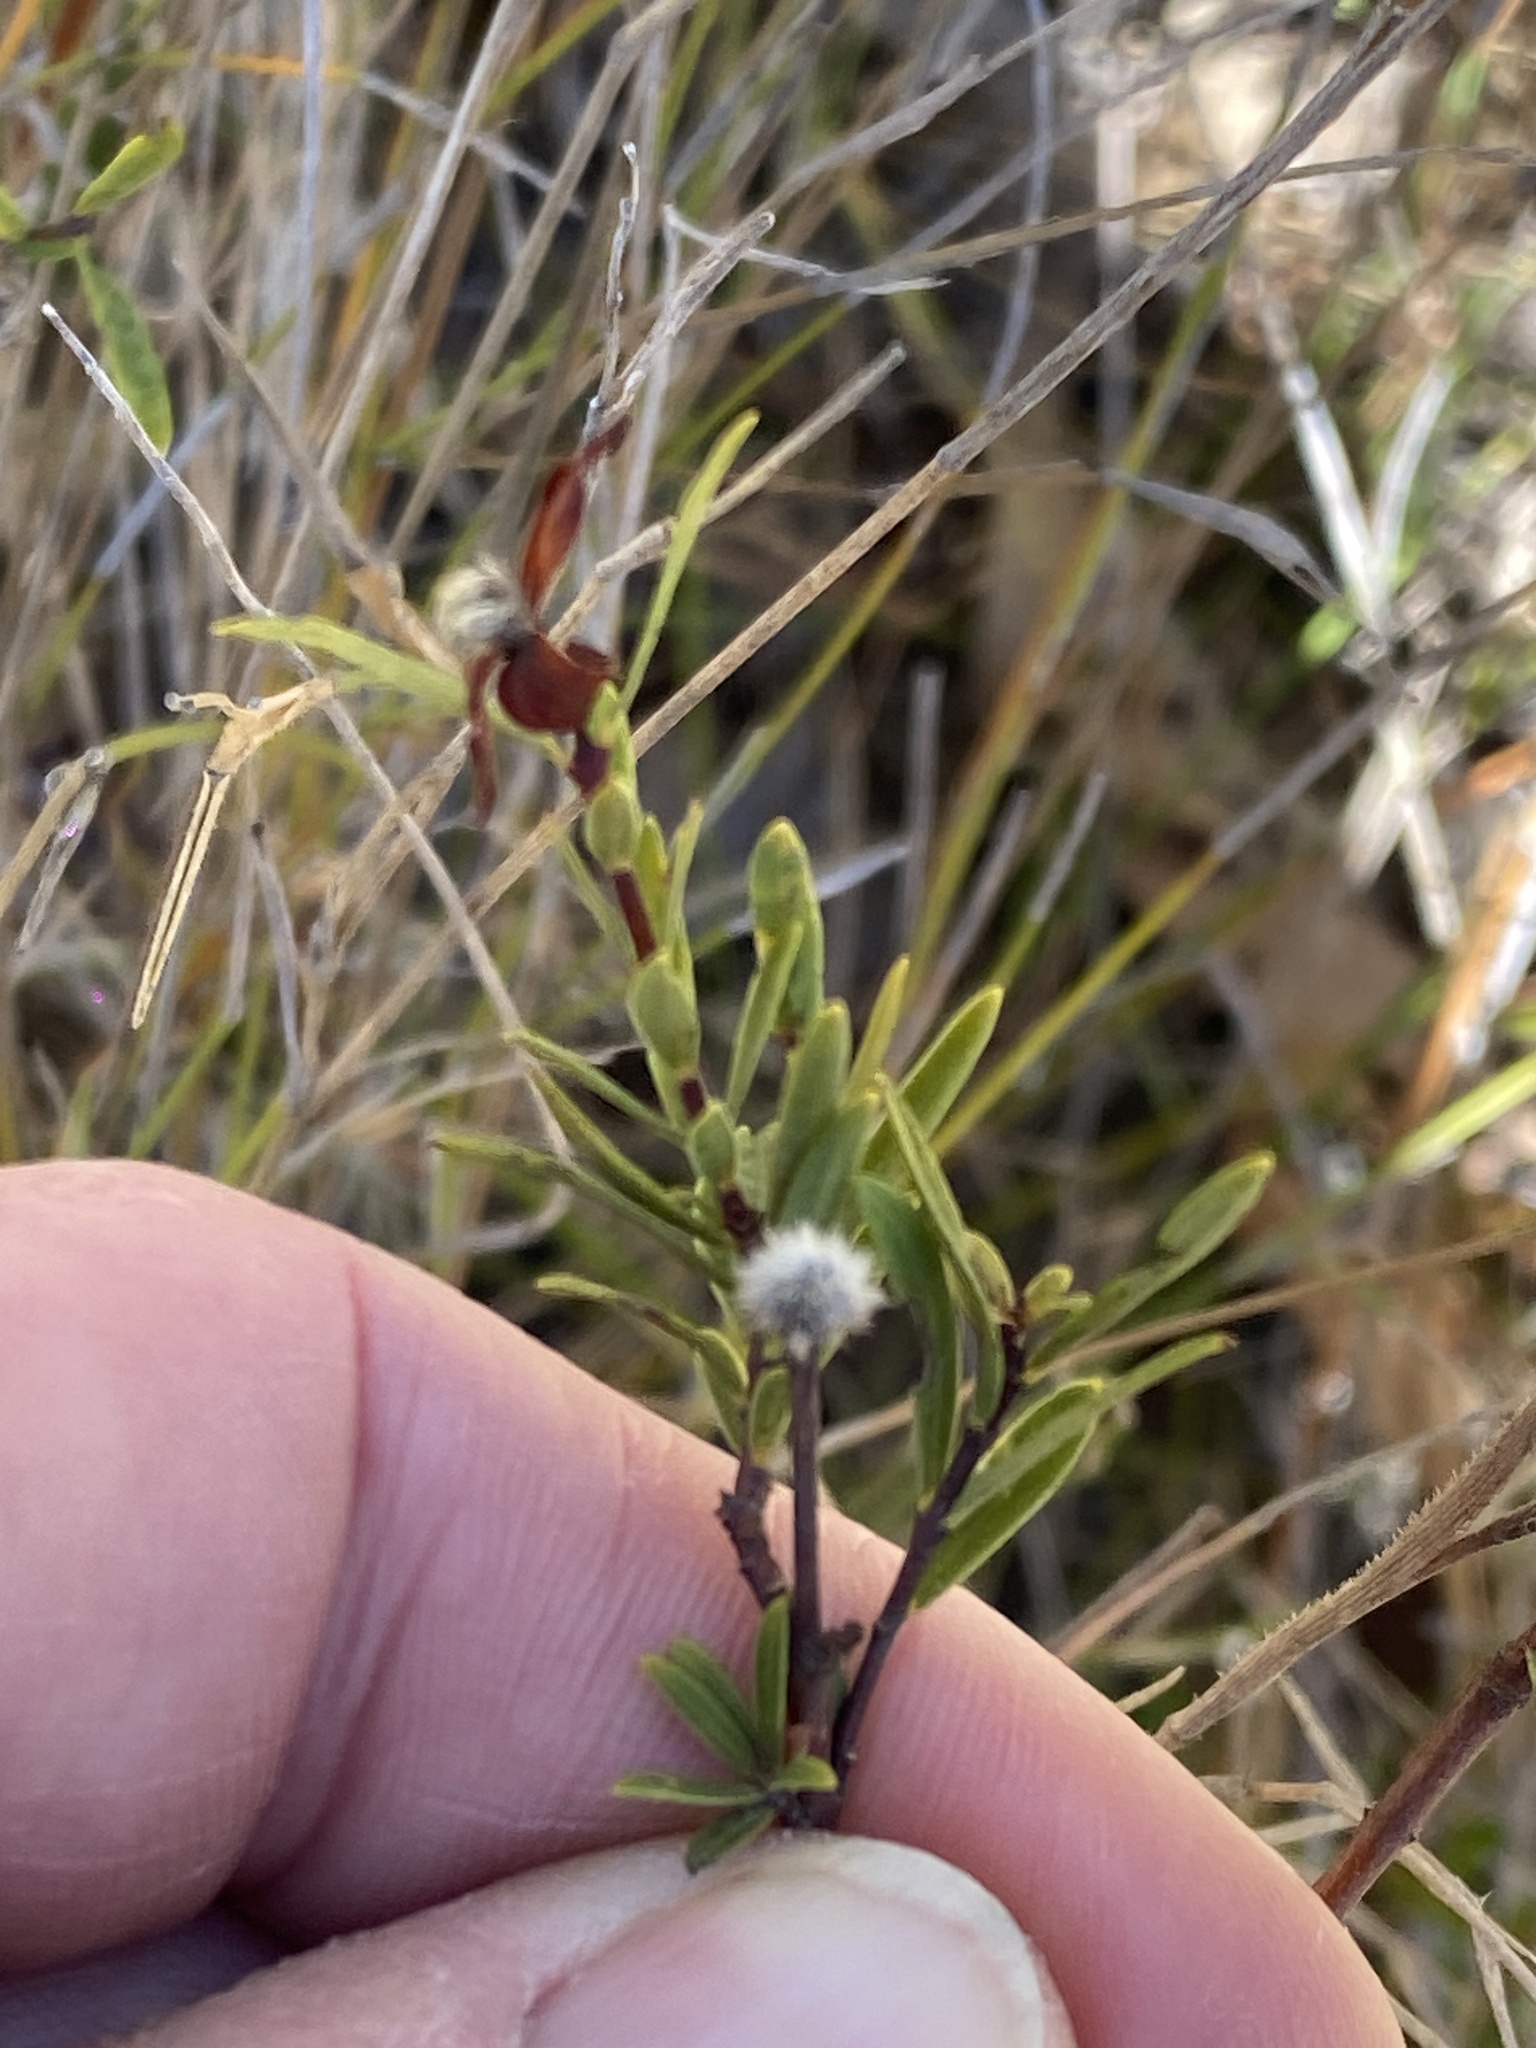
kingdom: Plantae
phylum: Tracheophyta
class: Magnoliopsida
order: Malvales
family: Thymelaeaceae
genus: Pimelea
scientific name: Pimelea linifolia
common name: Queen-of-the-bush
